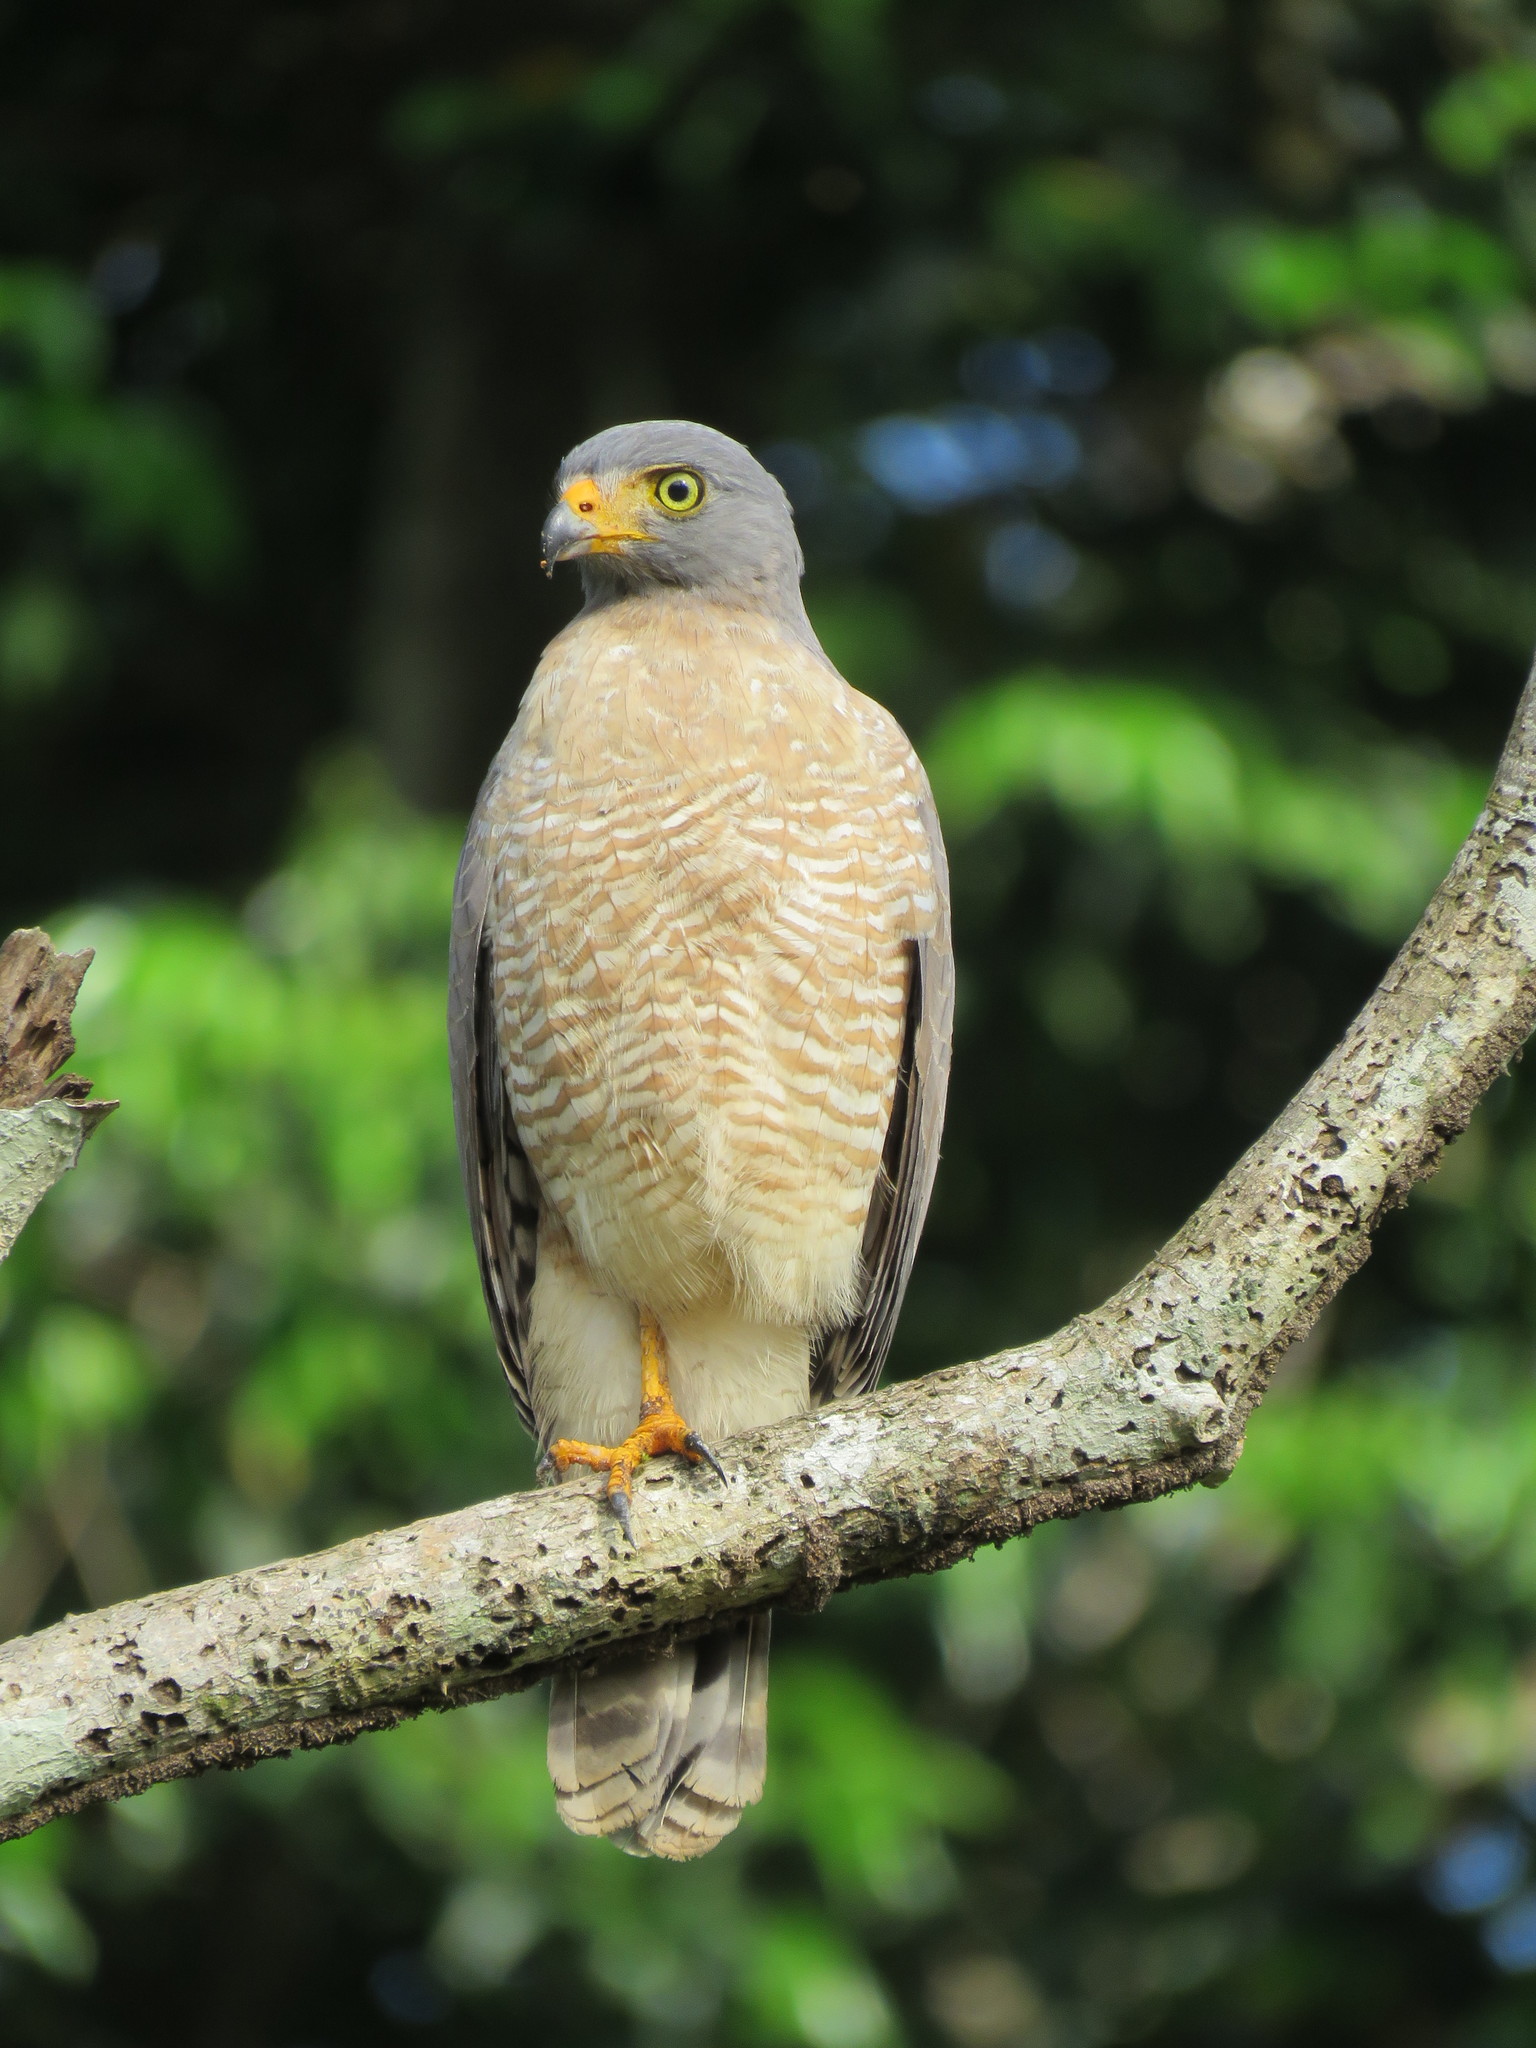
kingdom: Animalia
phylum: Chordata
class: Aves
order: Accipitriformes
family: Accipitridae
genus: Rupornis
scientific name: Rupornis magnirostris
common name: Roadside hawk
